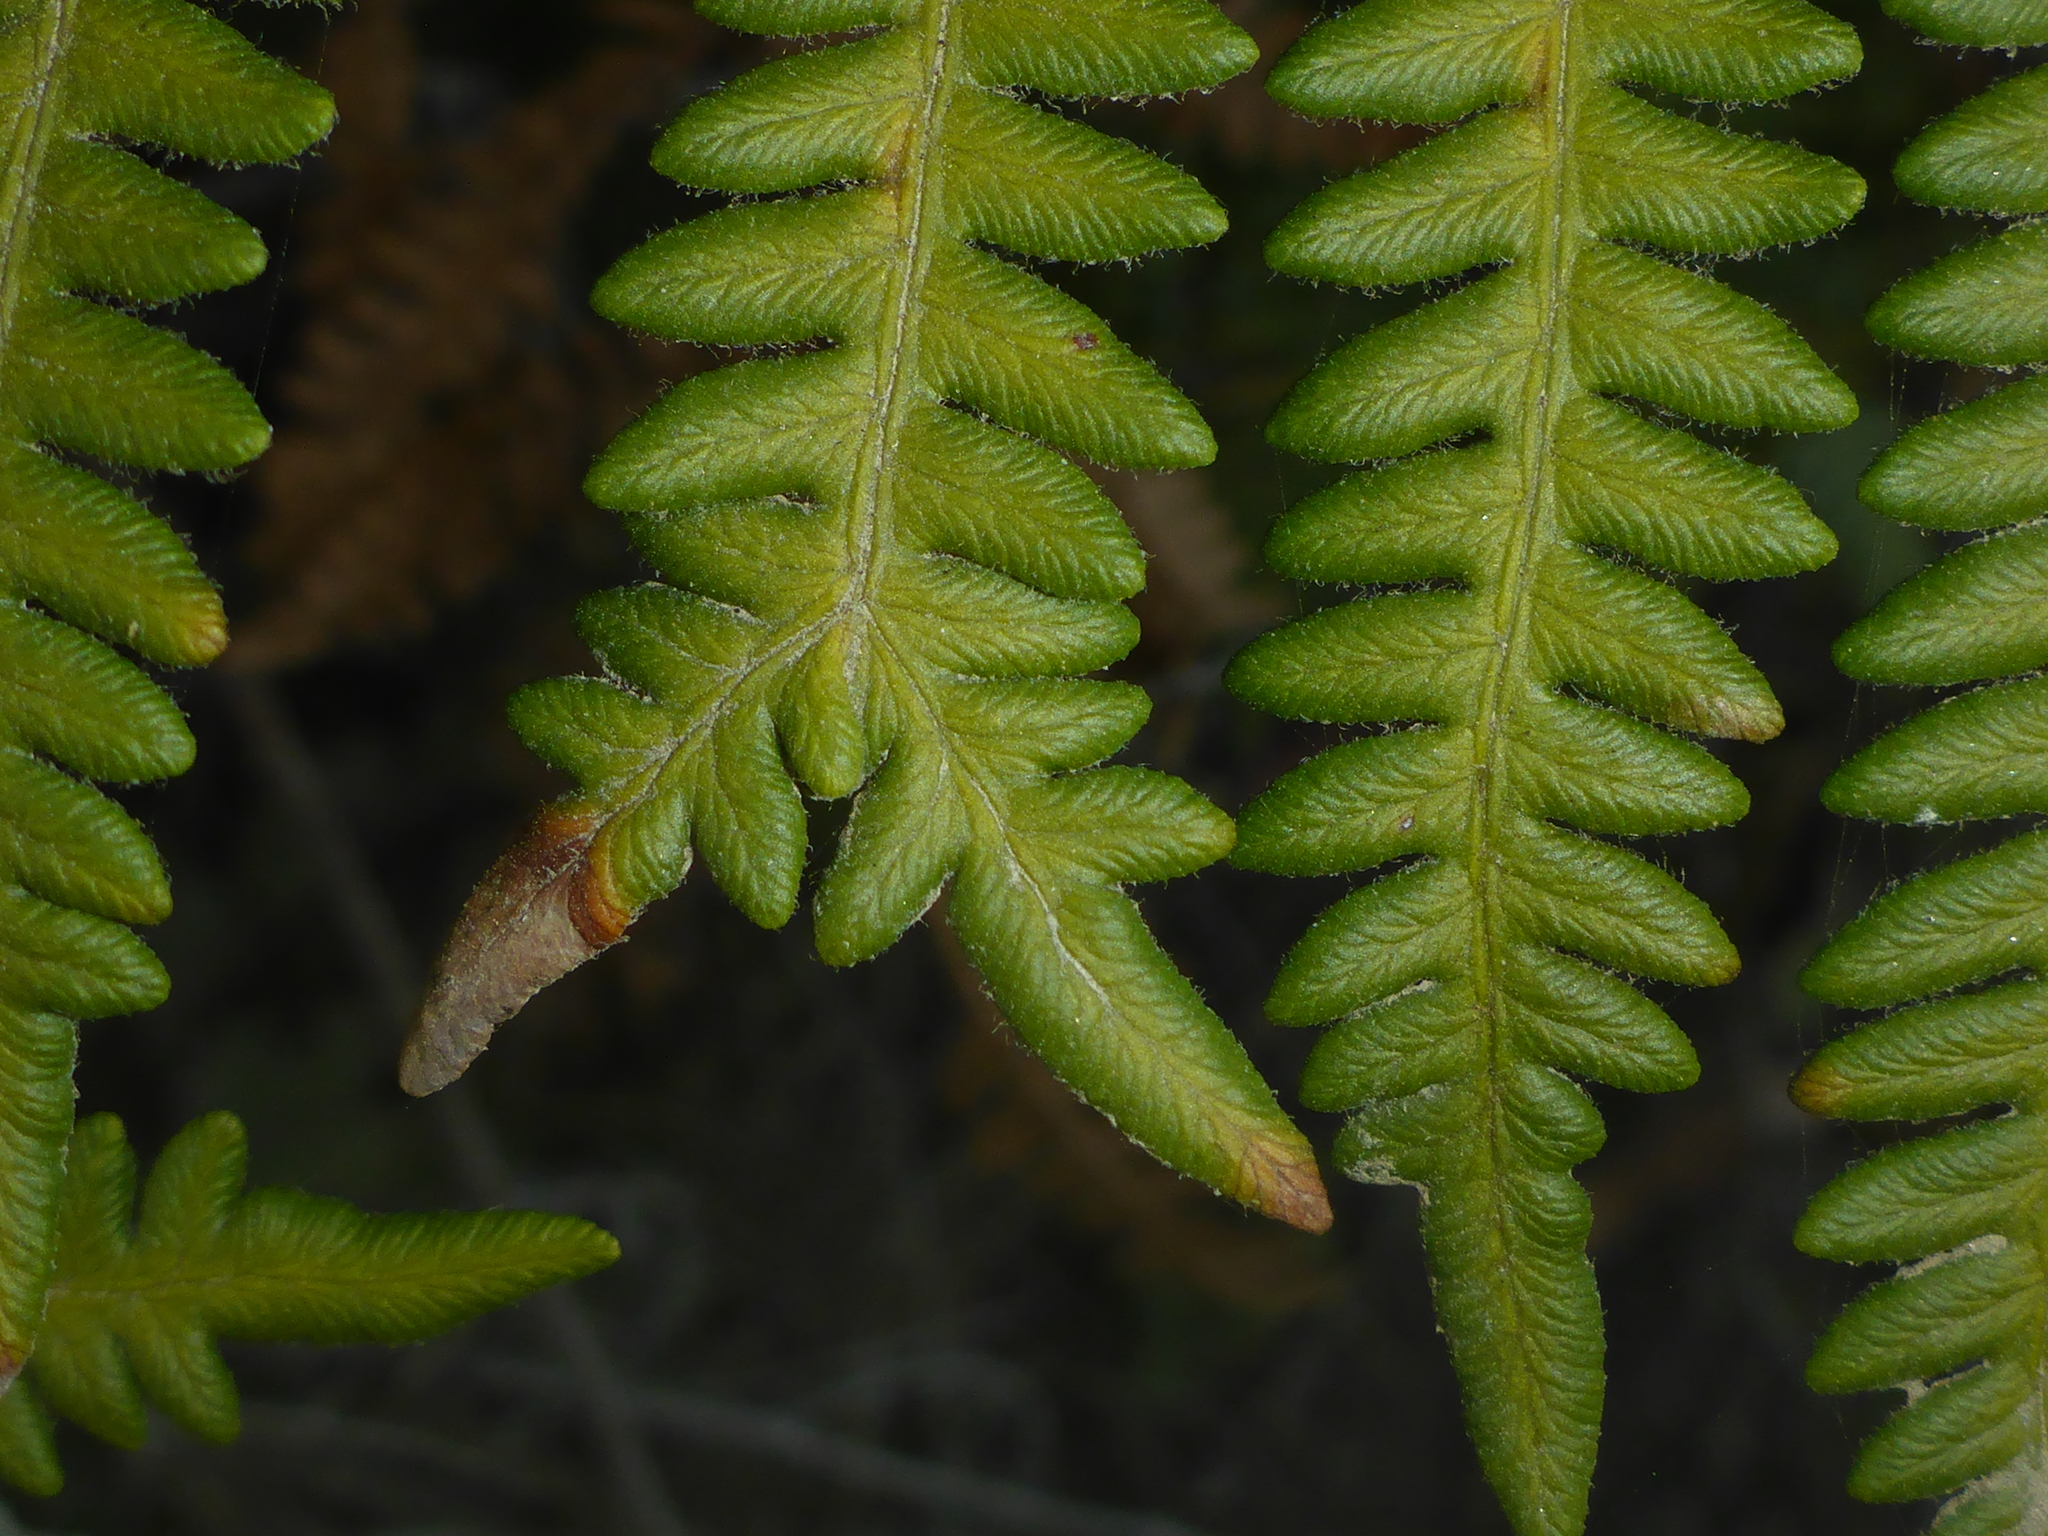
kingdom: Plantae
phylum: Tracheophyta
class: Polypodiopsida
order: Polypodiales
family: Dennstaedtiaceae
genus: Pteridium
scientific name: Pteridium aquilinum
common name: Bracken
